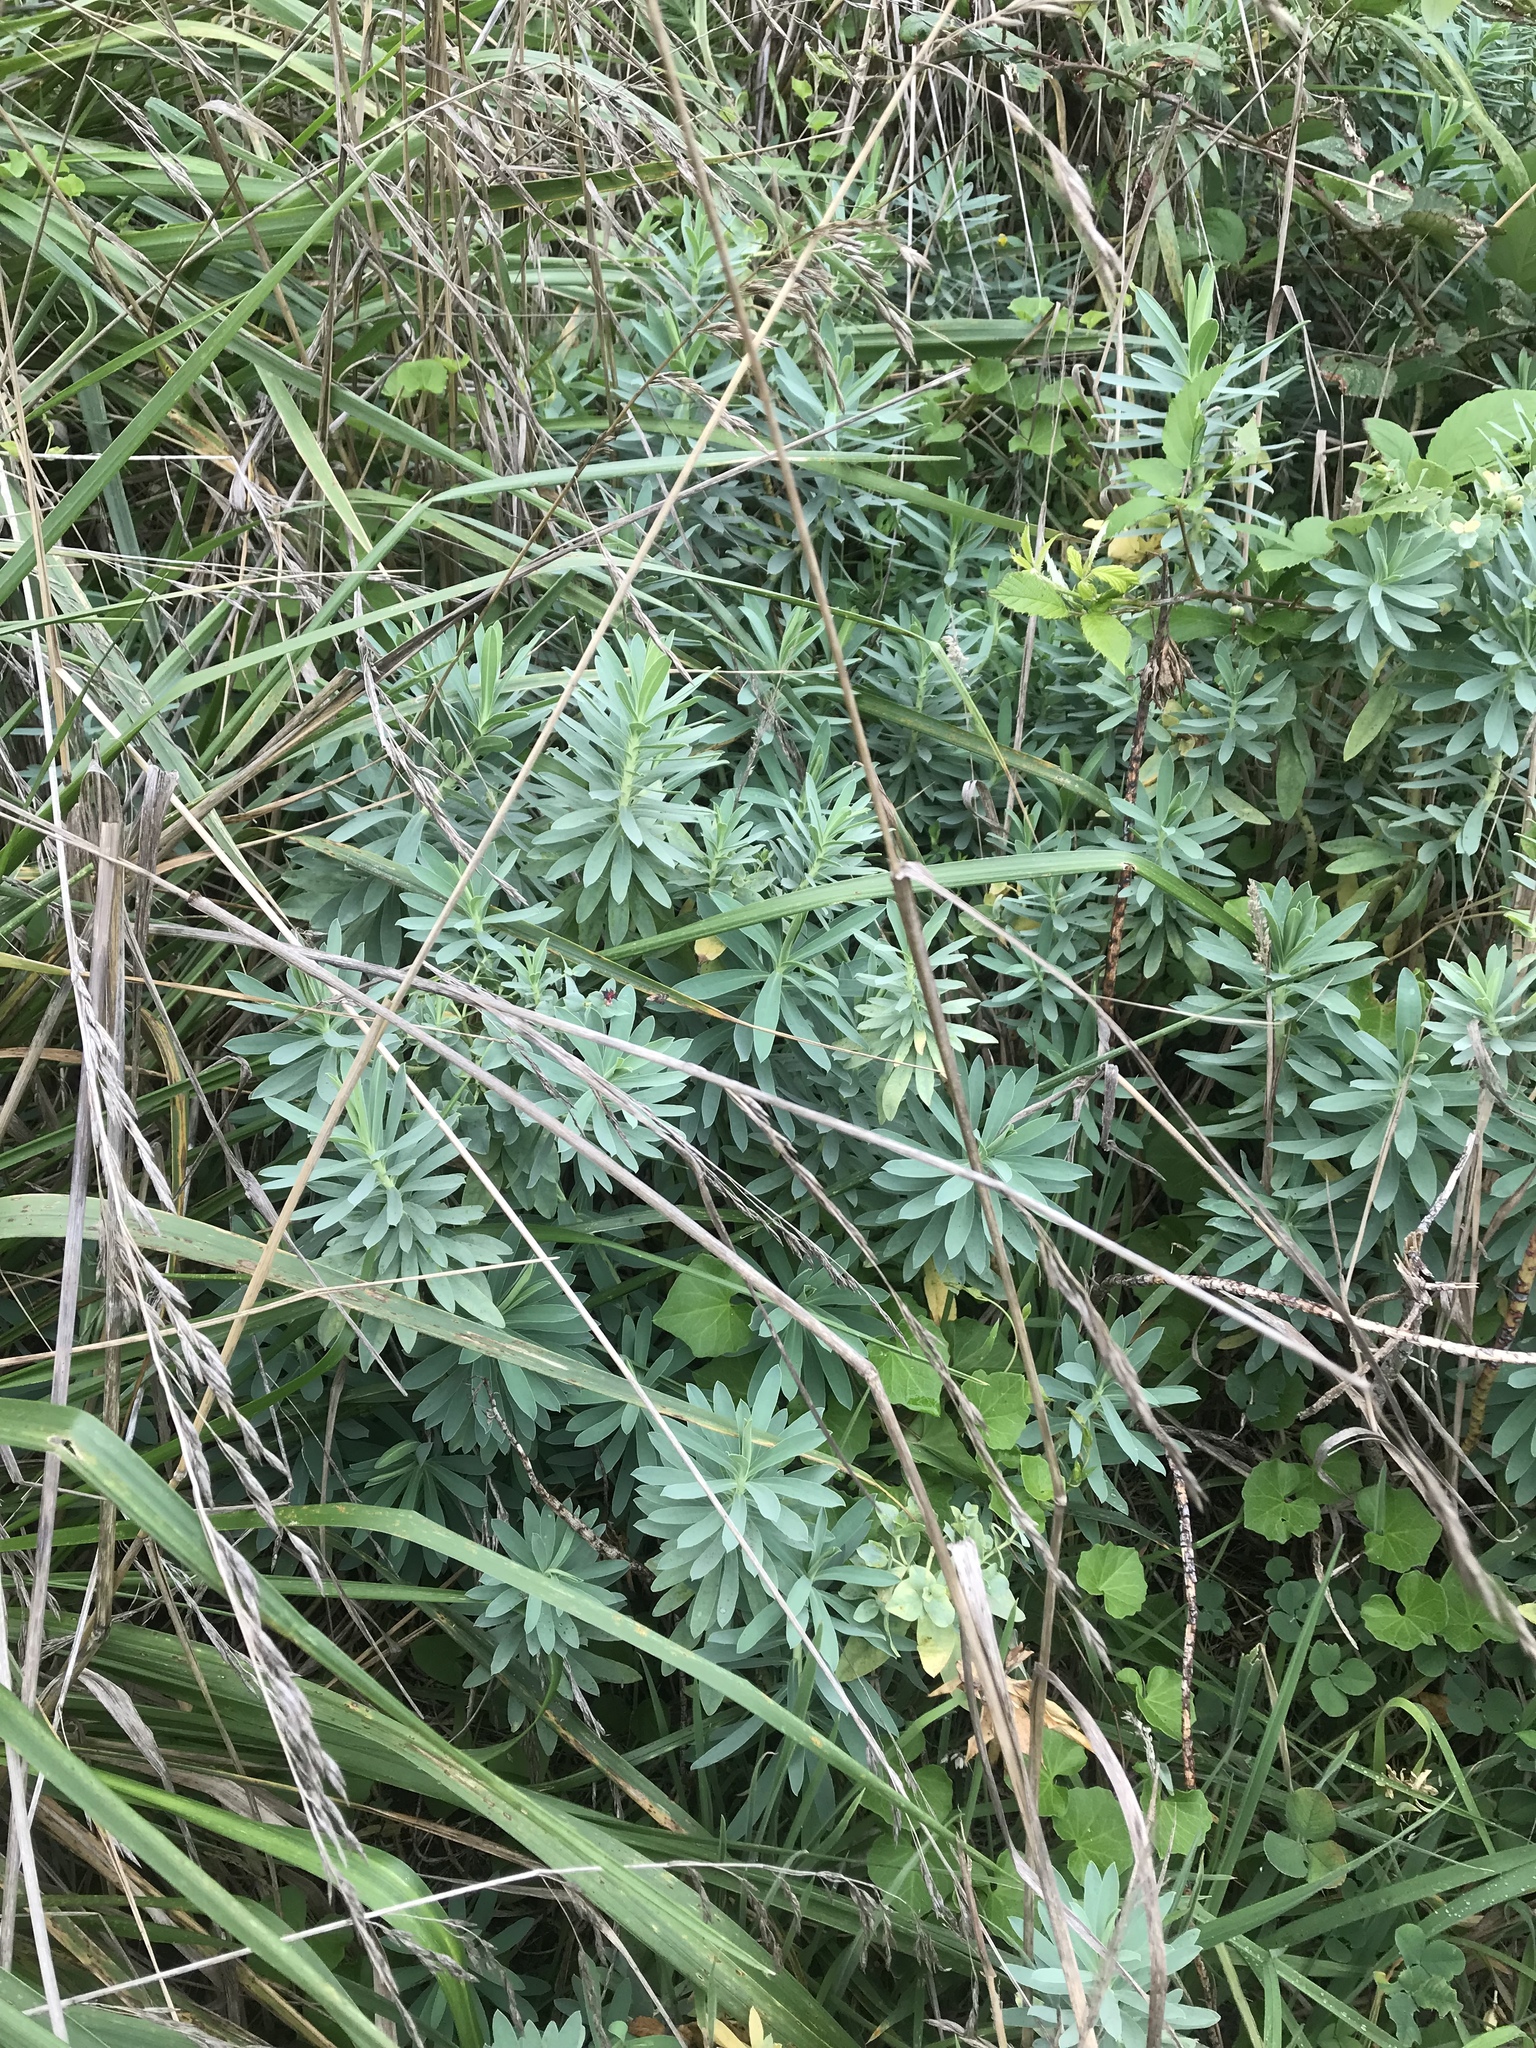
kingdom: Plantae
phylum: Tracheophyta
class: Magnoliopsida
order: Malpighiales
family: Euphorbiaceae
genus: Euphorbia
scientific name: Euphorbia glauca
